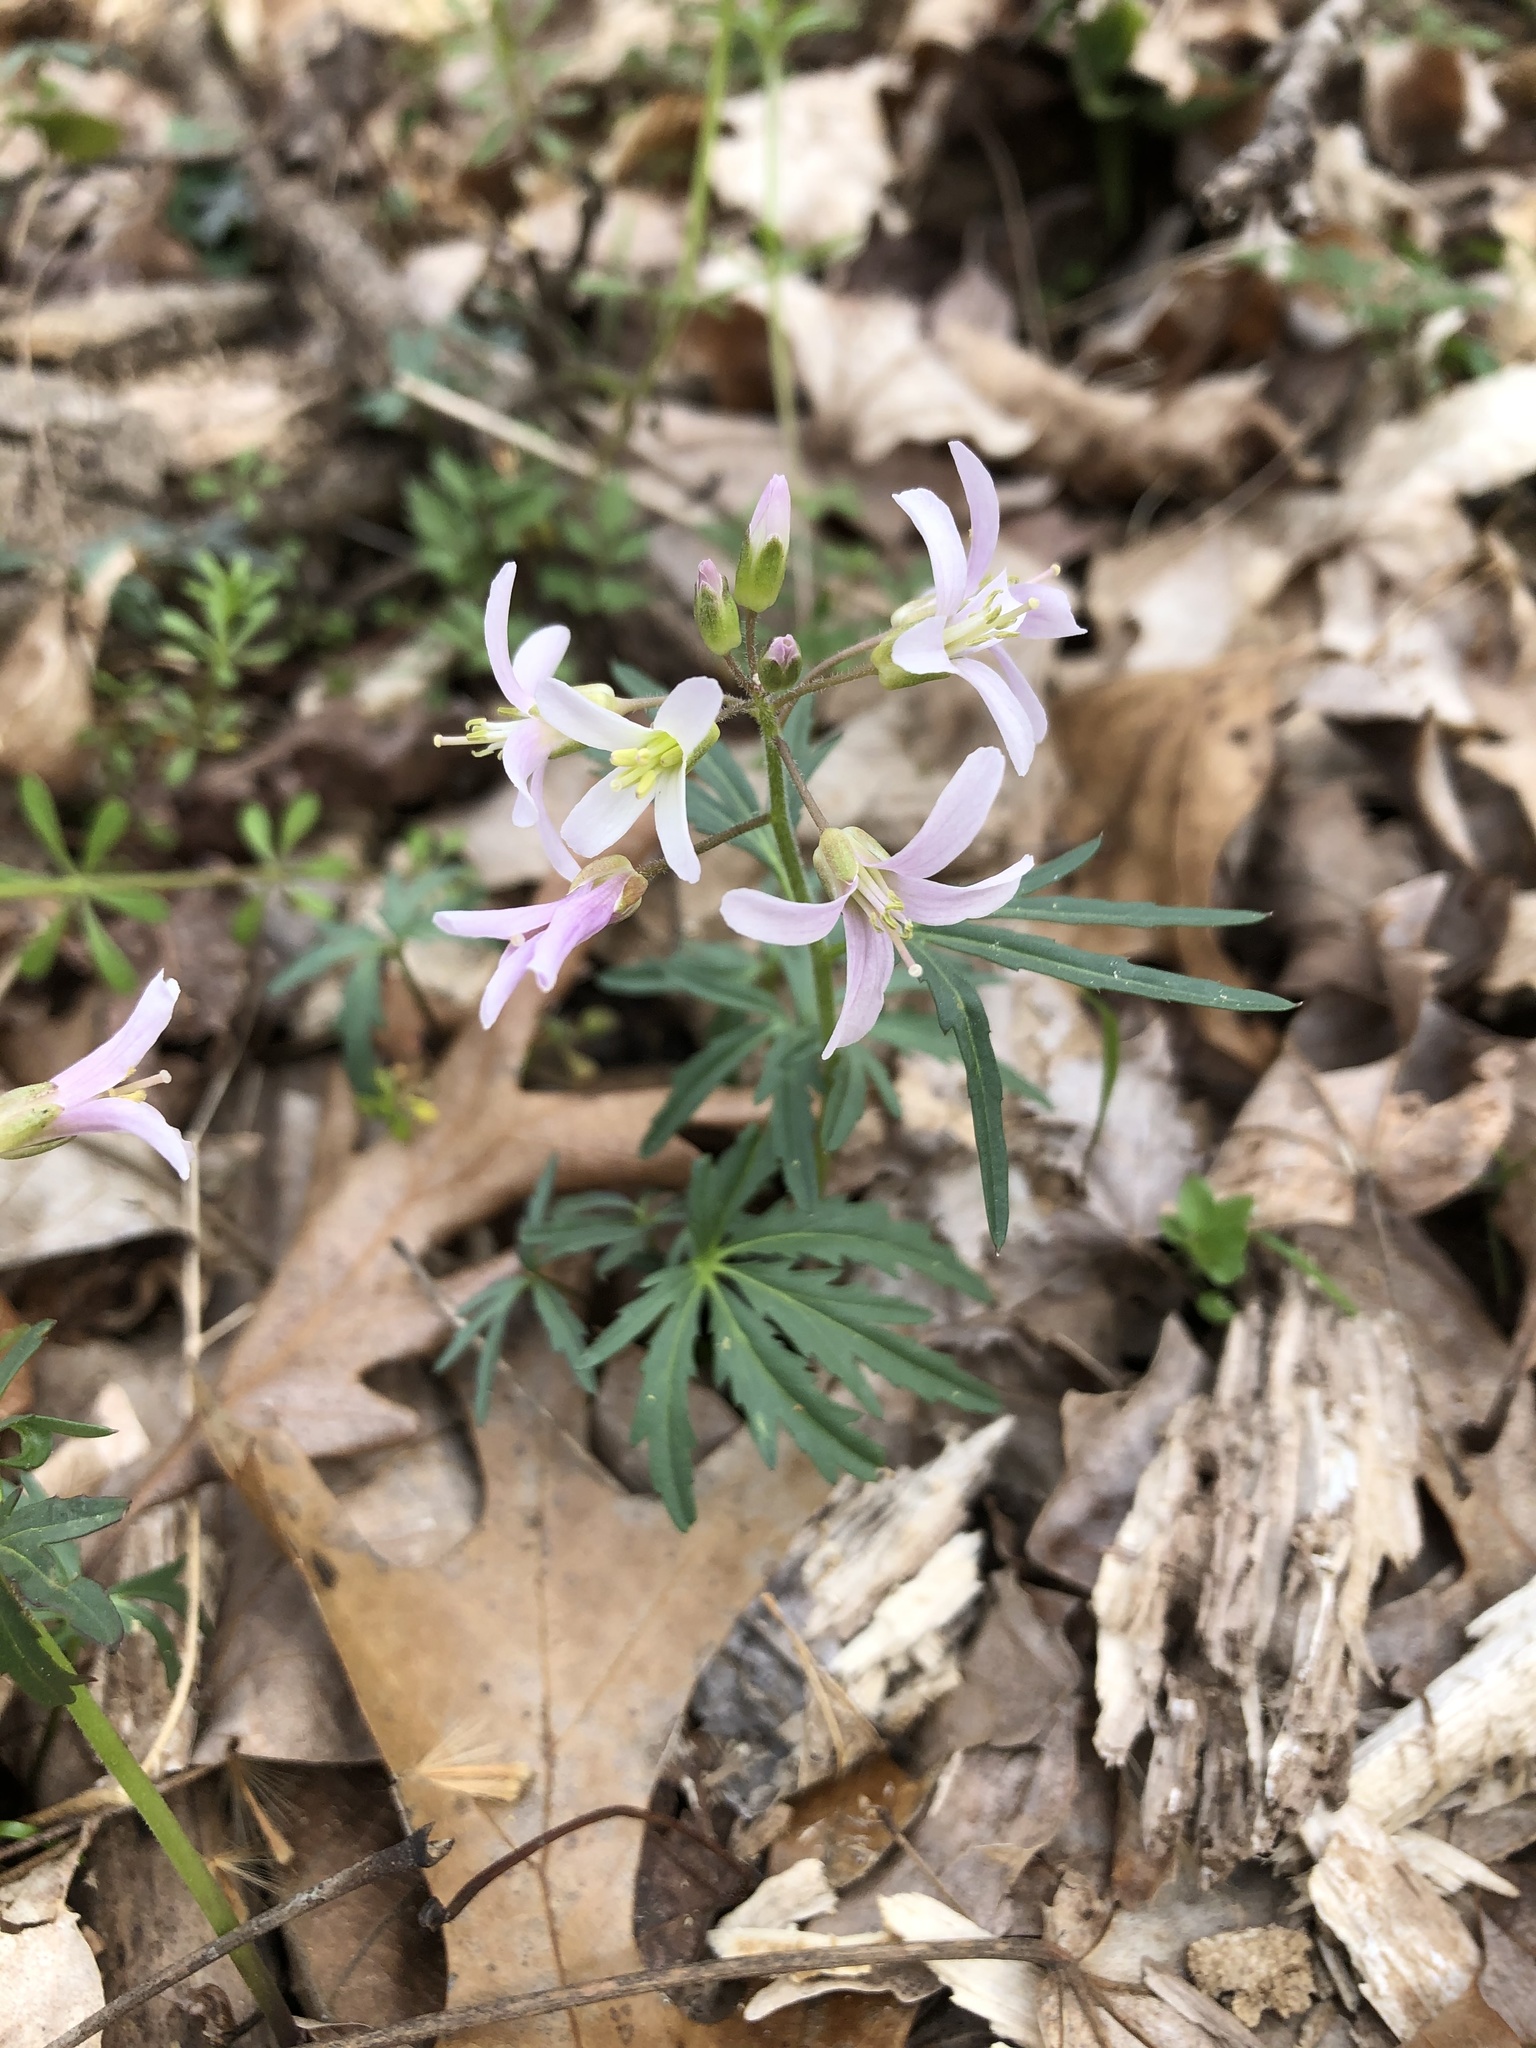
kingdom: Plantae
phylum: Tracheophyta
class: Magnoliopsida
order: Brassicales
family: Brassicaceae
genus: Cardamine
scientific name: Cardamine concatenata
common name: Cut-leaf toothcup
